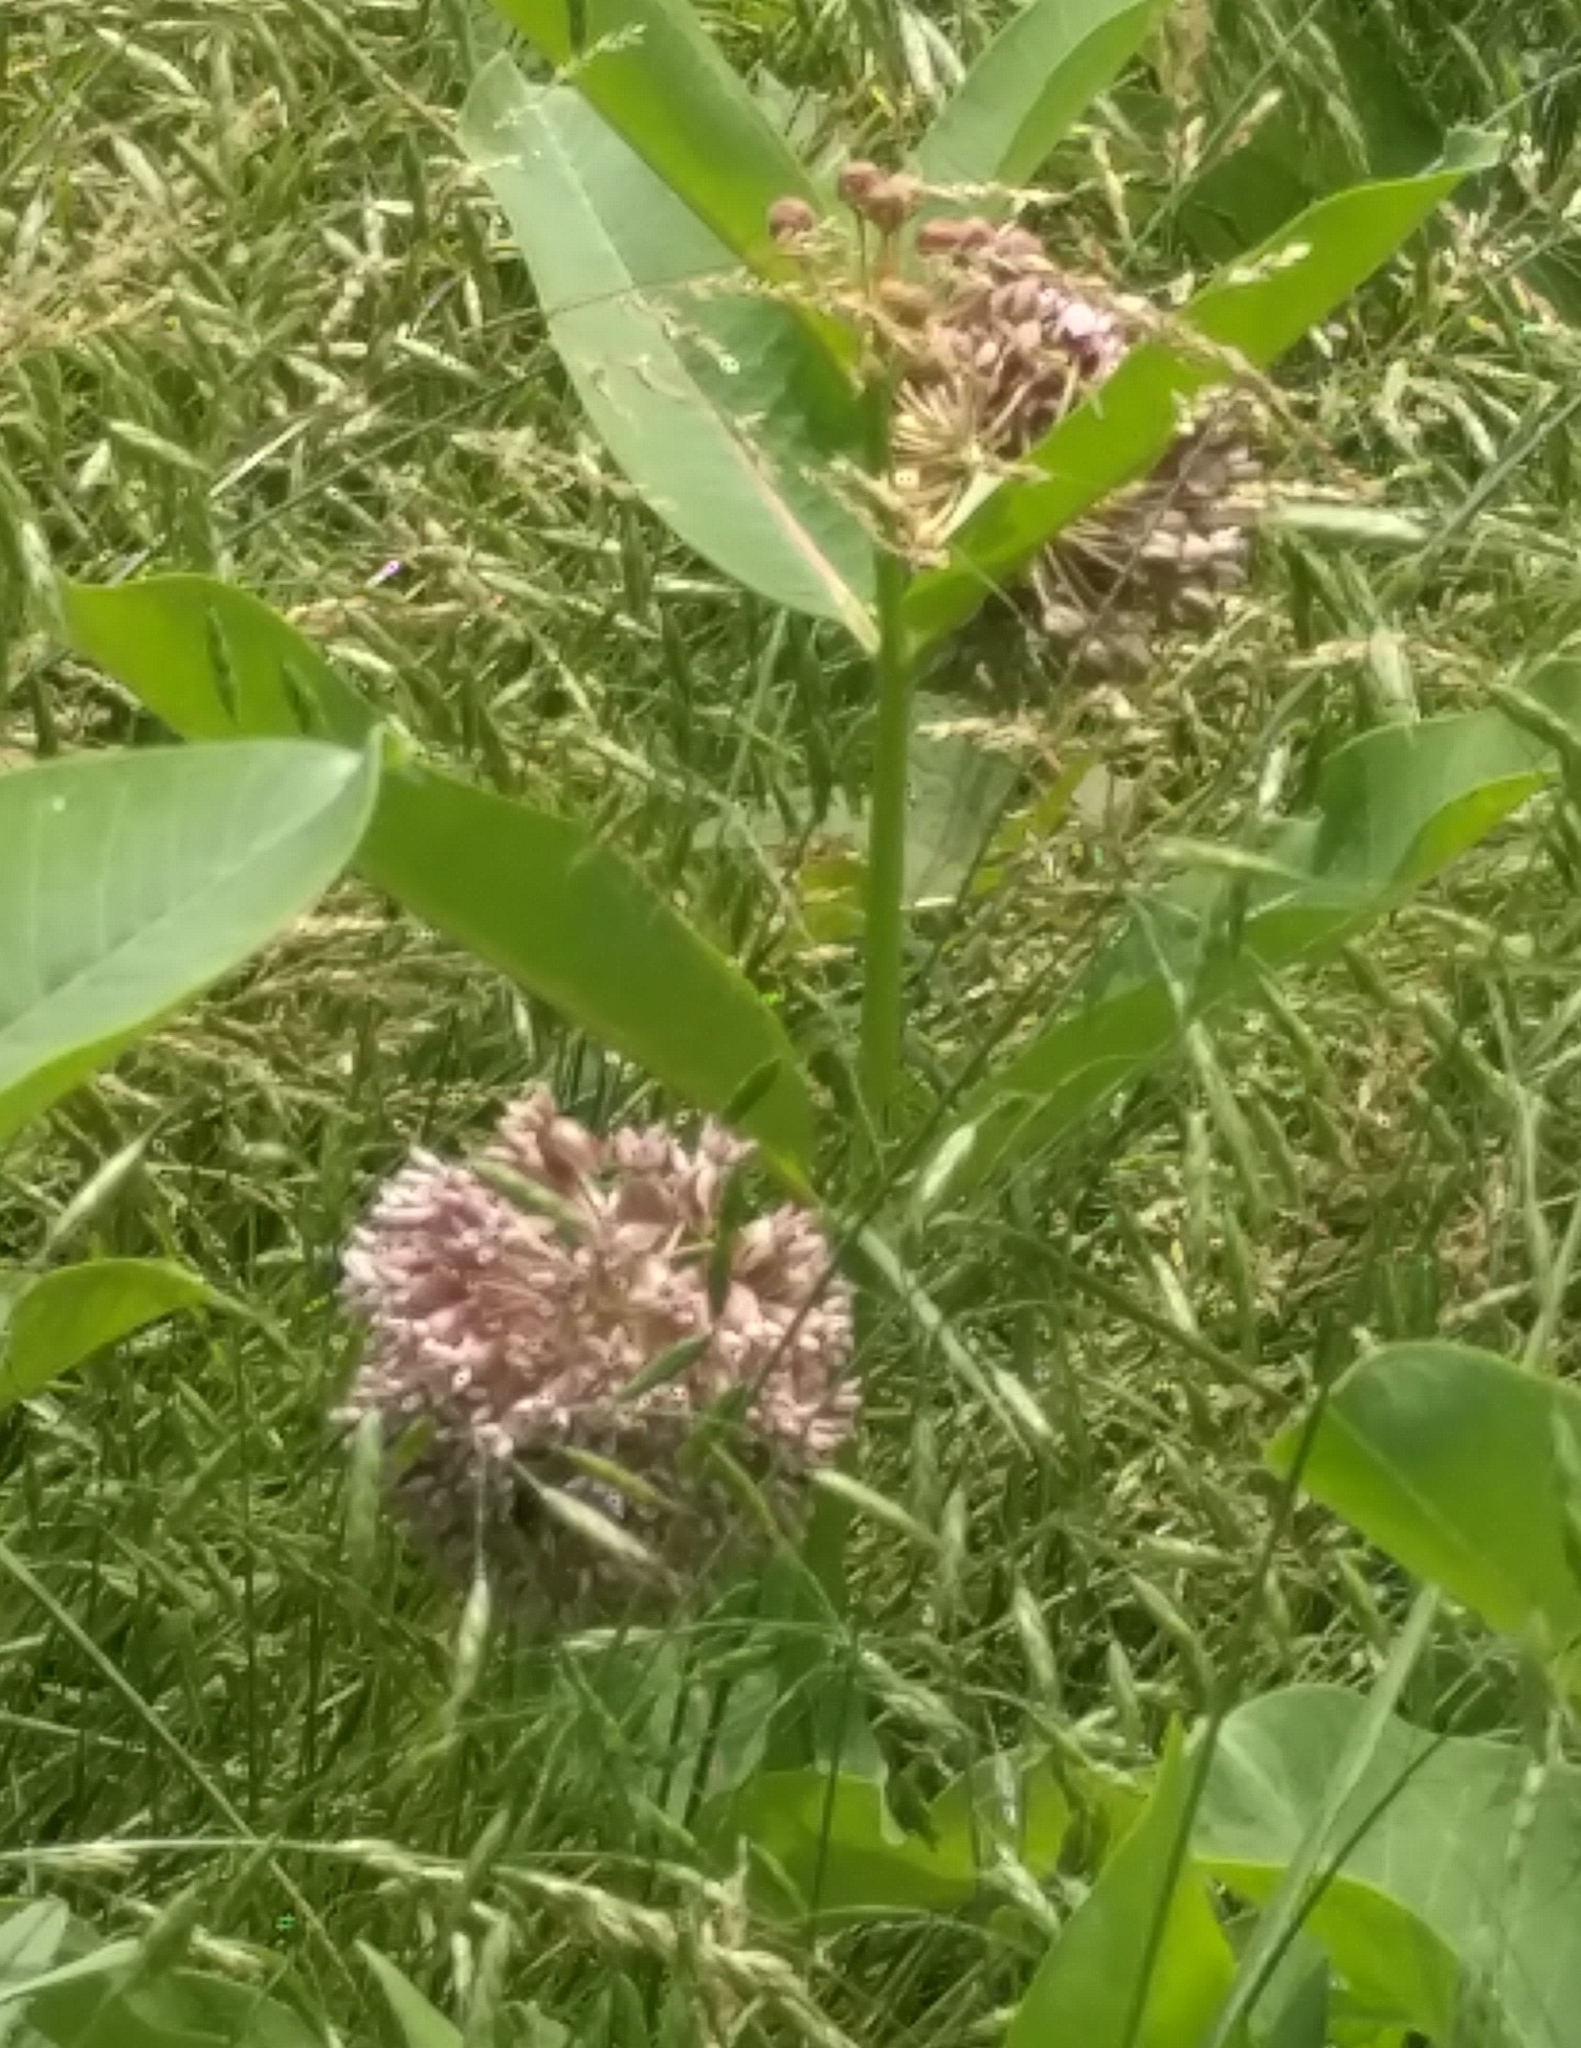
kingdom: Plantae
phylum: Tracheophyta
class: Magnoliopsida
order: Gentianales
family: Apocynaceae
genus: Asclepias
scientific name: Asclepias syriaca
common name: Common milkweed
